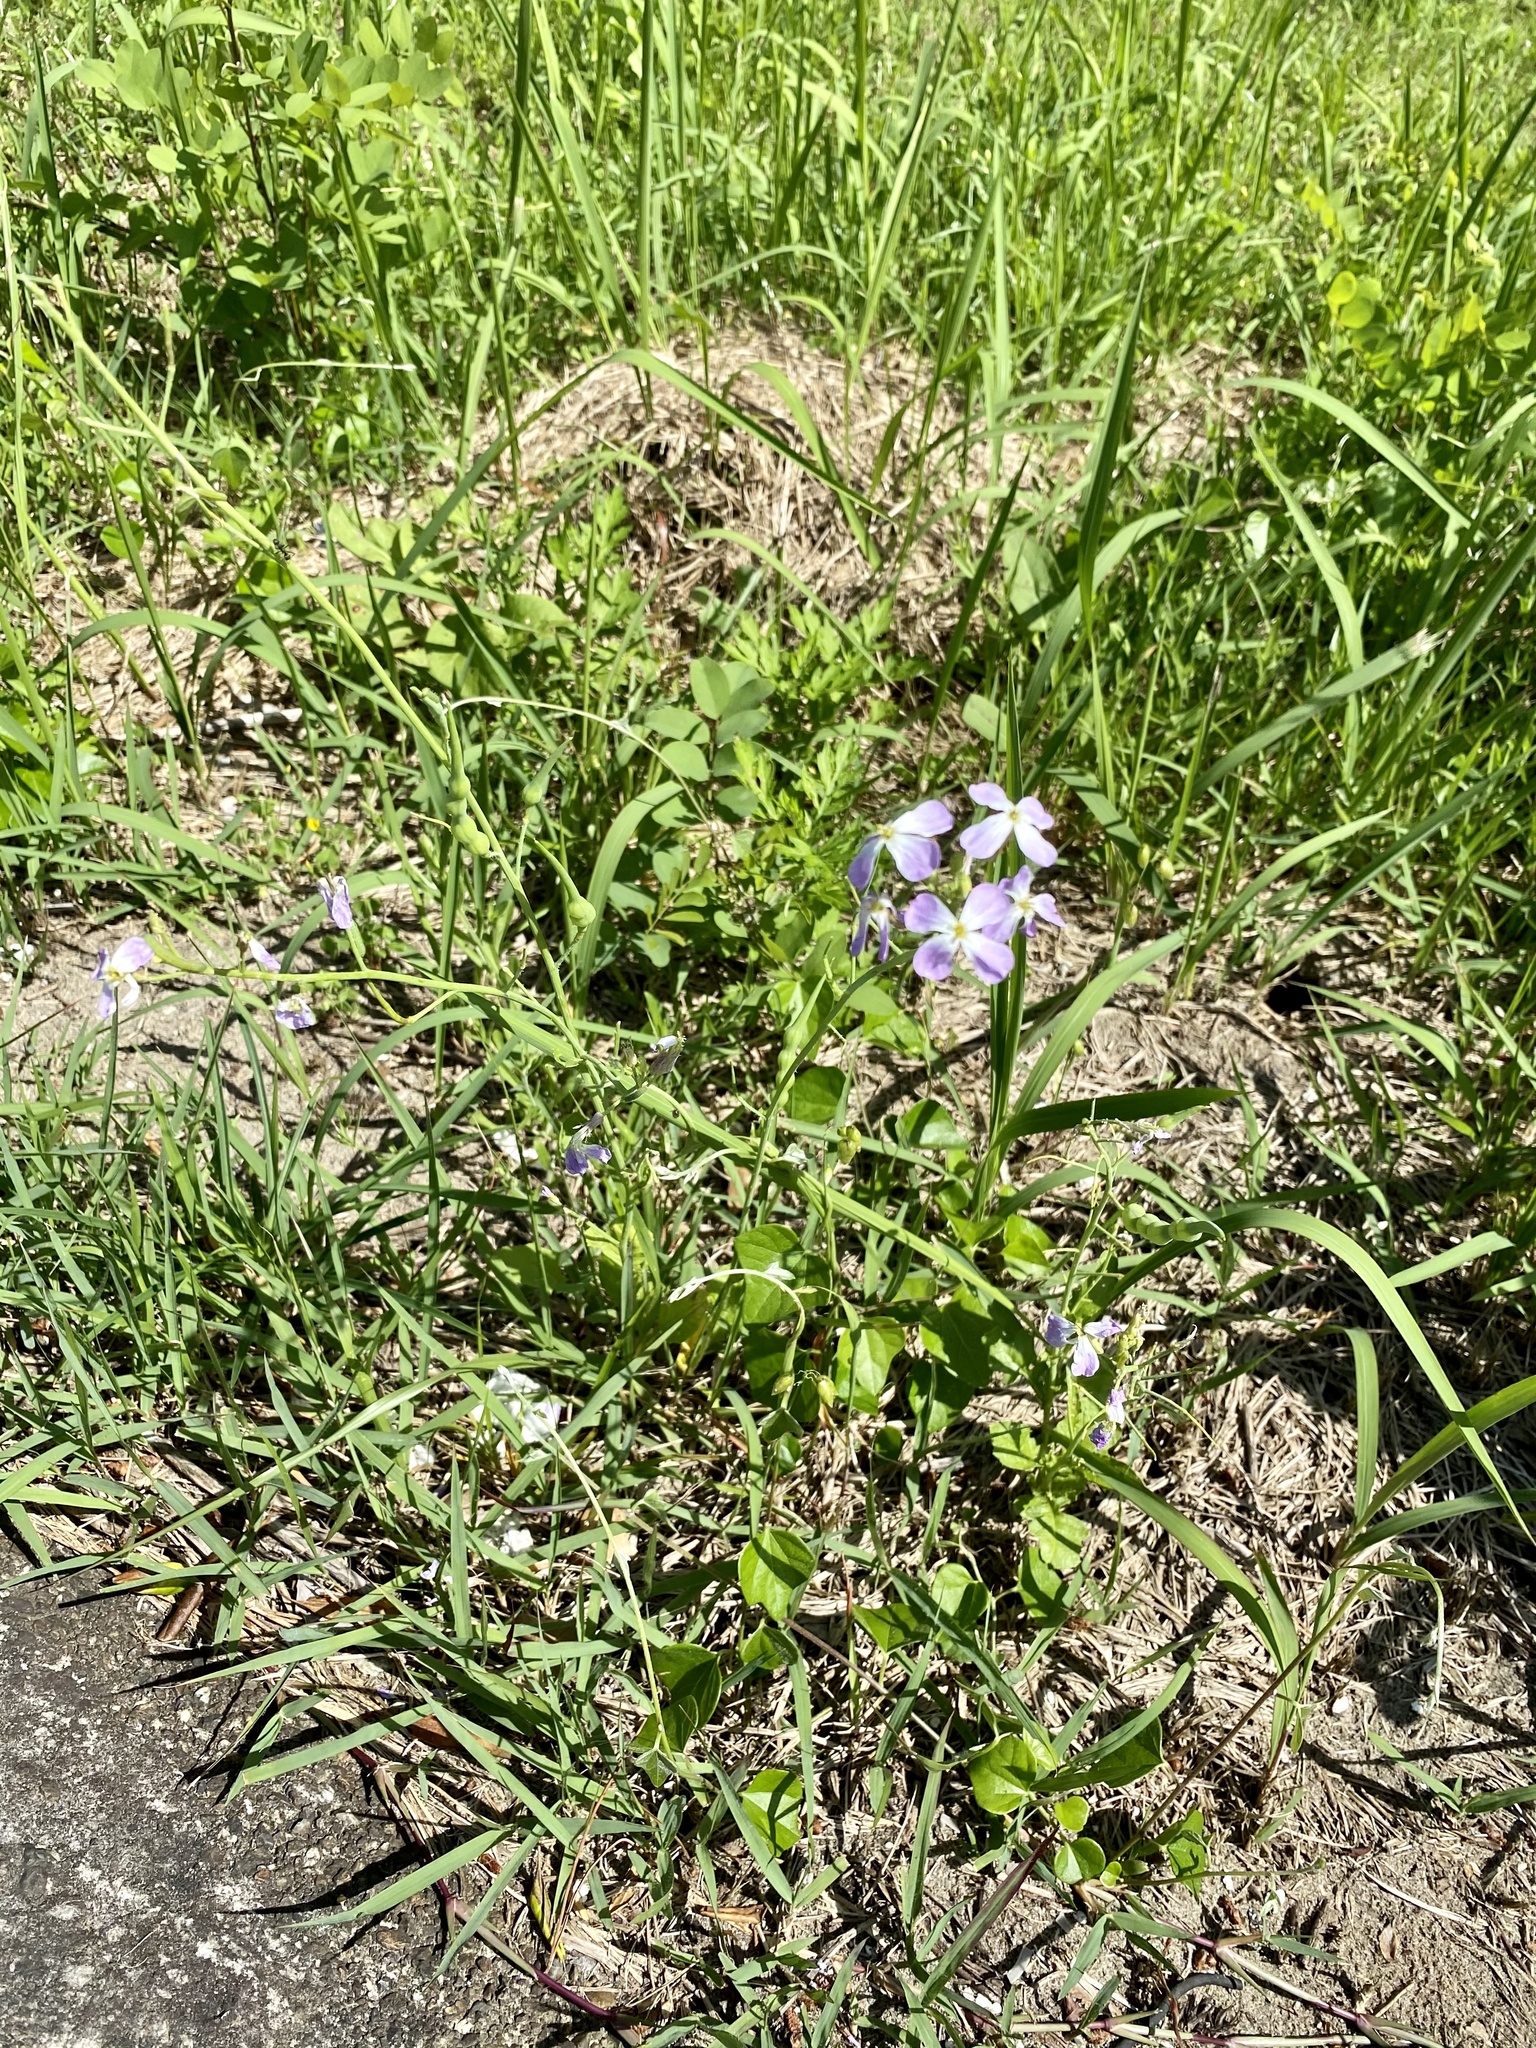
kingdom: Plantae
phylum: Tracheophyta
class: Magnoliopsida
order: Brassicales
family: Brassicaceae
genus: Raphanus
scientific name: Raphanus sativus
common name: Cultivated radish
